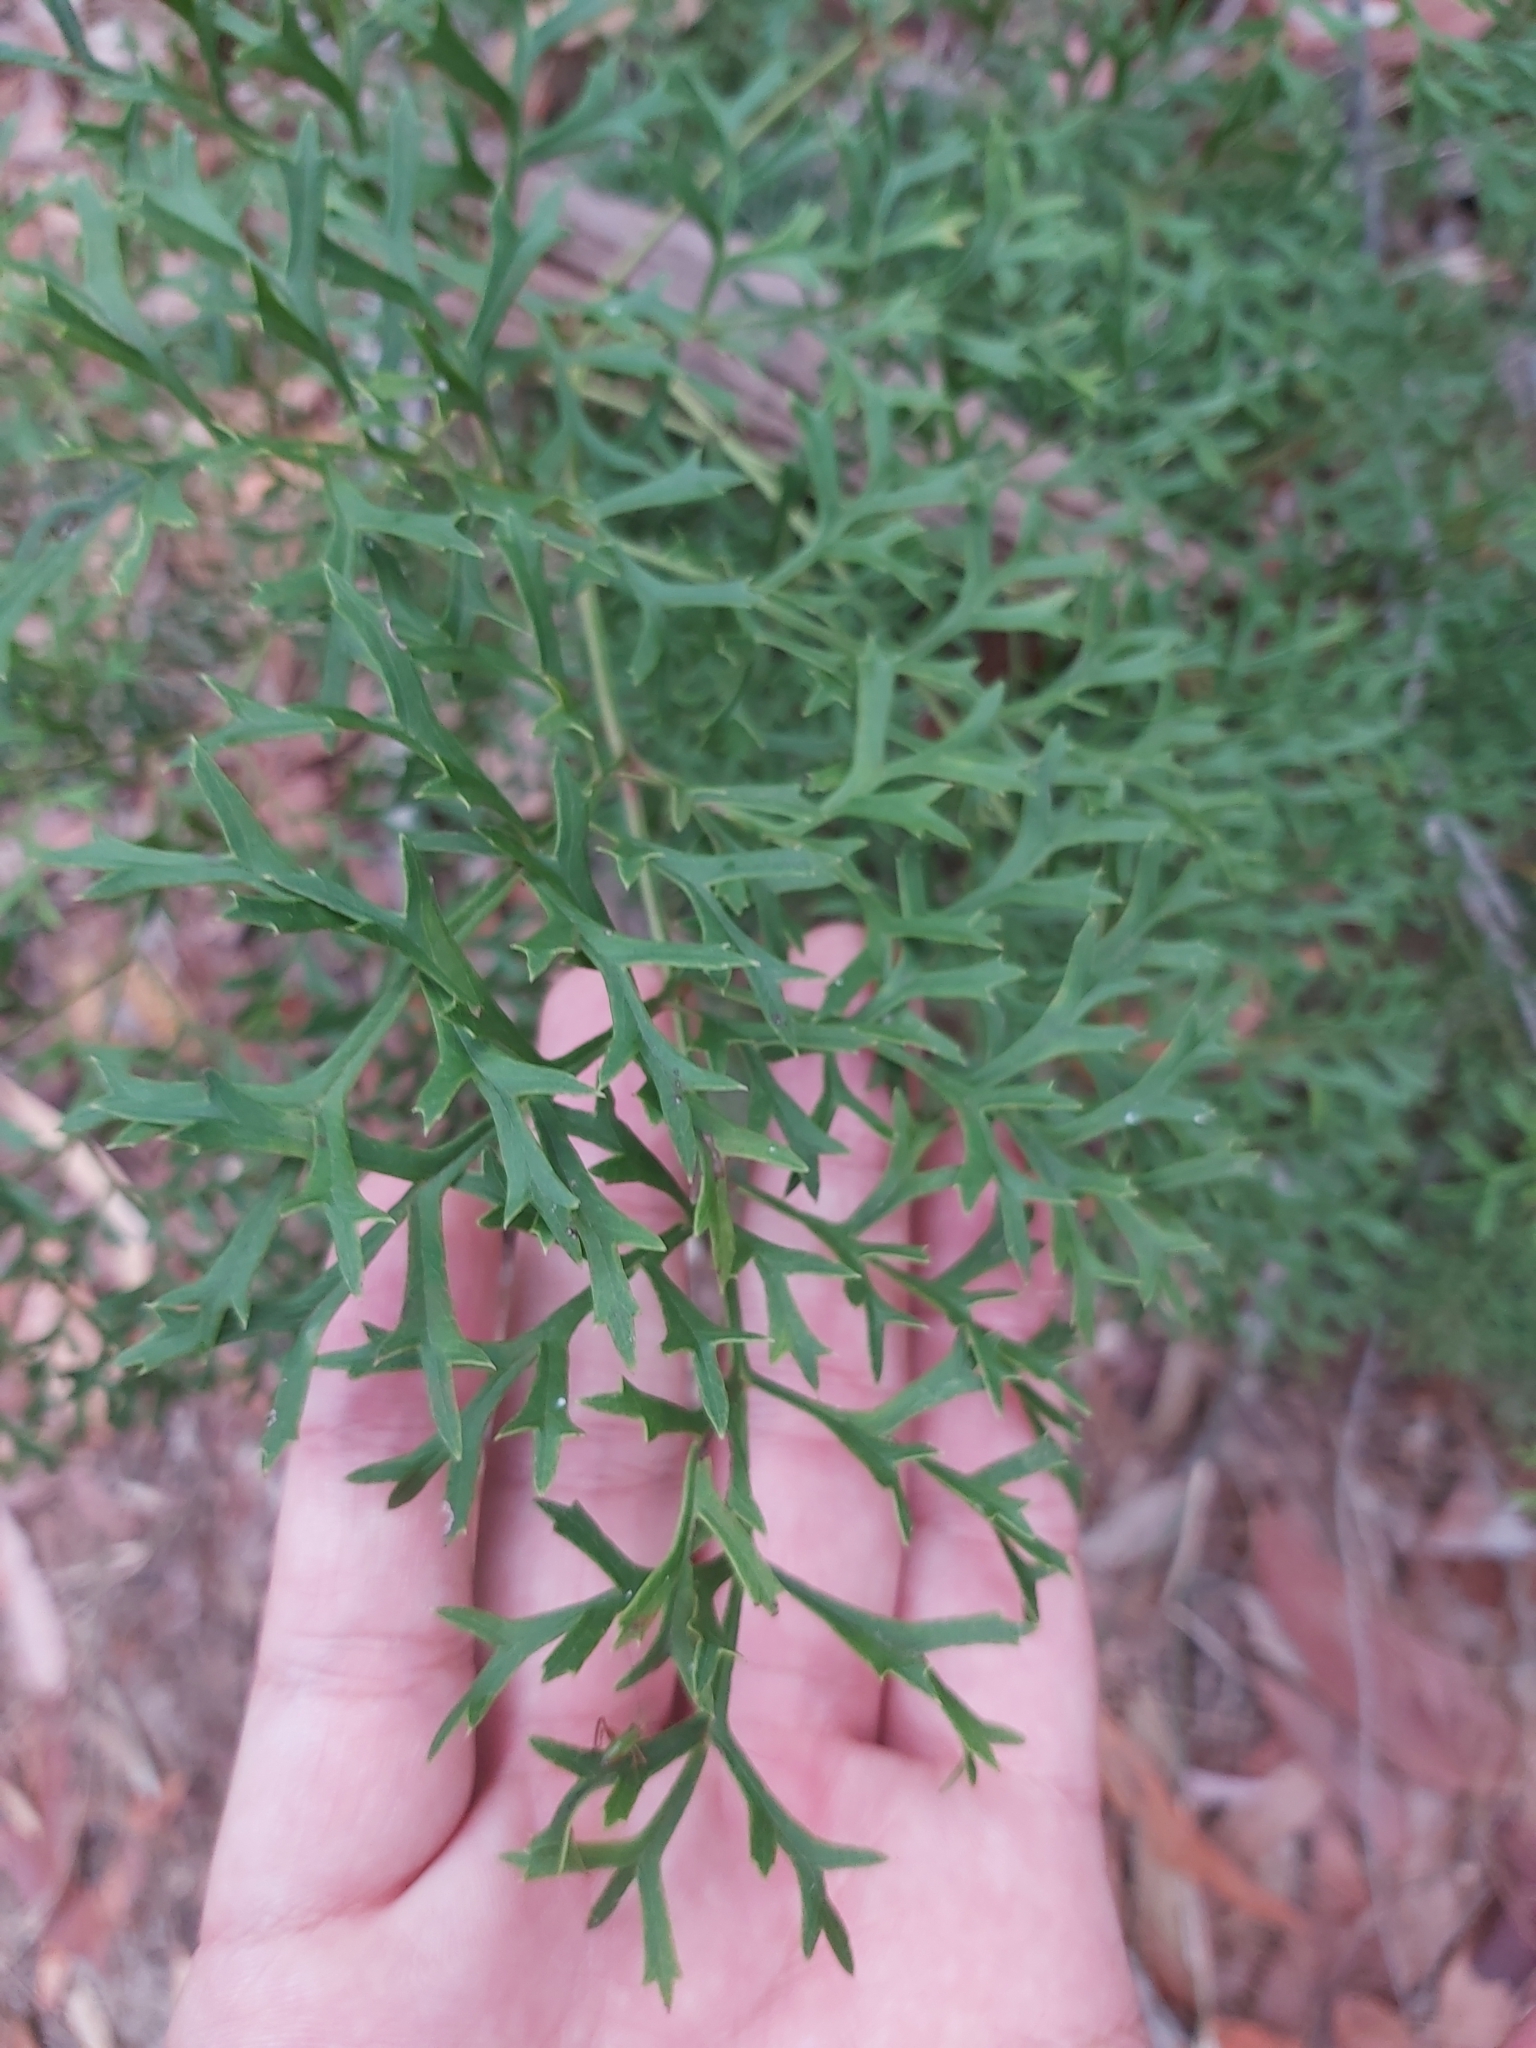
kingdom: Plantae
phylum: Tracheophyta
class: Magnoliopsida
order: Proteales
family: Proteaceae
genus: Lomatia
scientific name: Lomatia silaifolia
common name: Crinklebush
